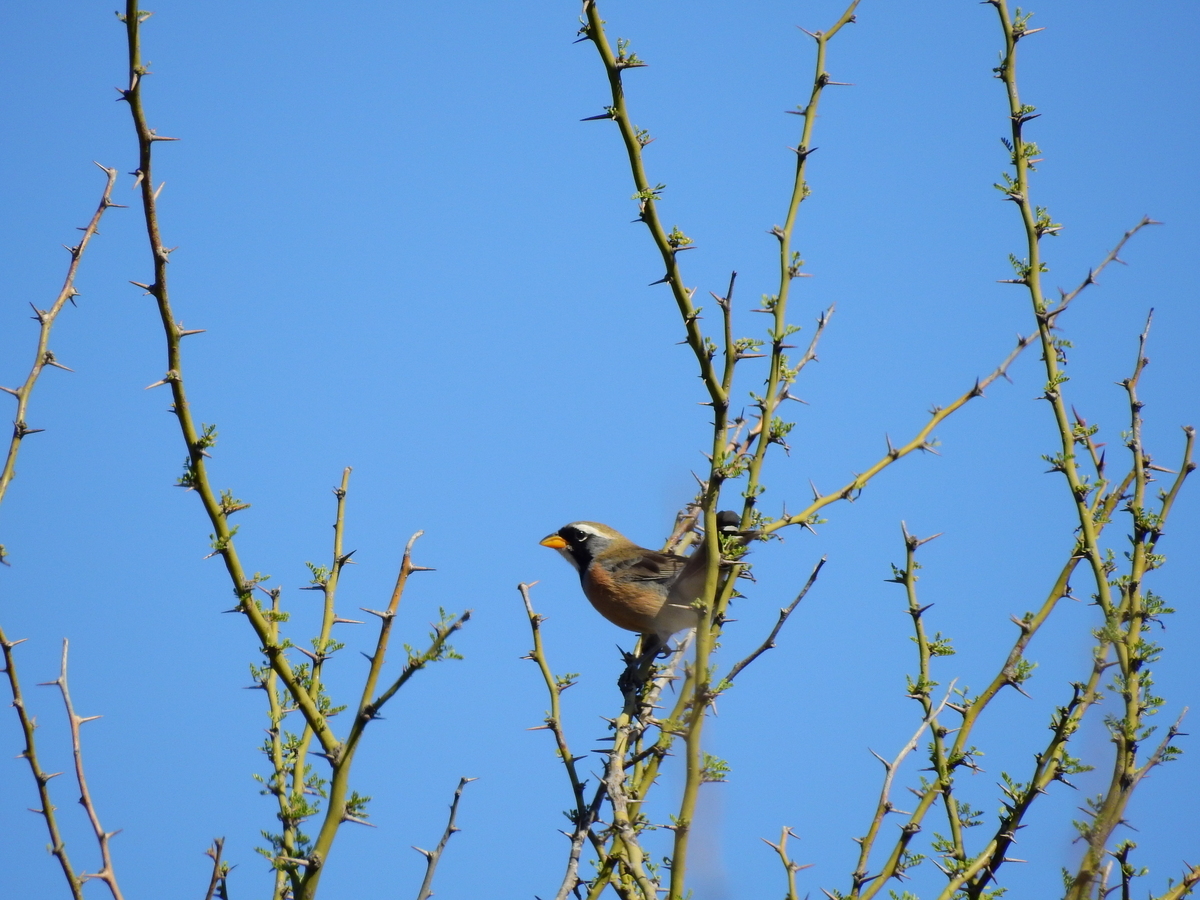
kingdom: Animalia
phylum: Chordata
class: Aves
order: Passeriformes
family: Thraupidae
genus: Saltatricula
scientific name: Saltatricula multicolor
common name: Many-colored chaco finch
